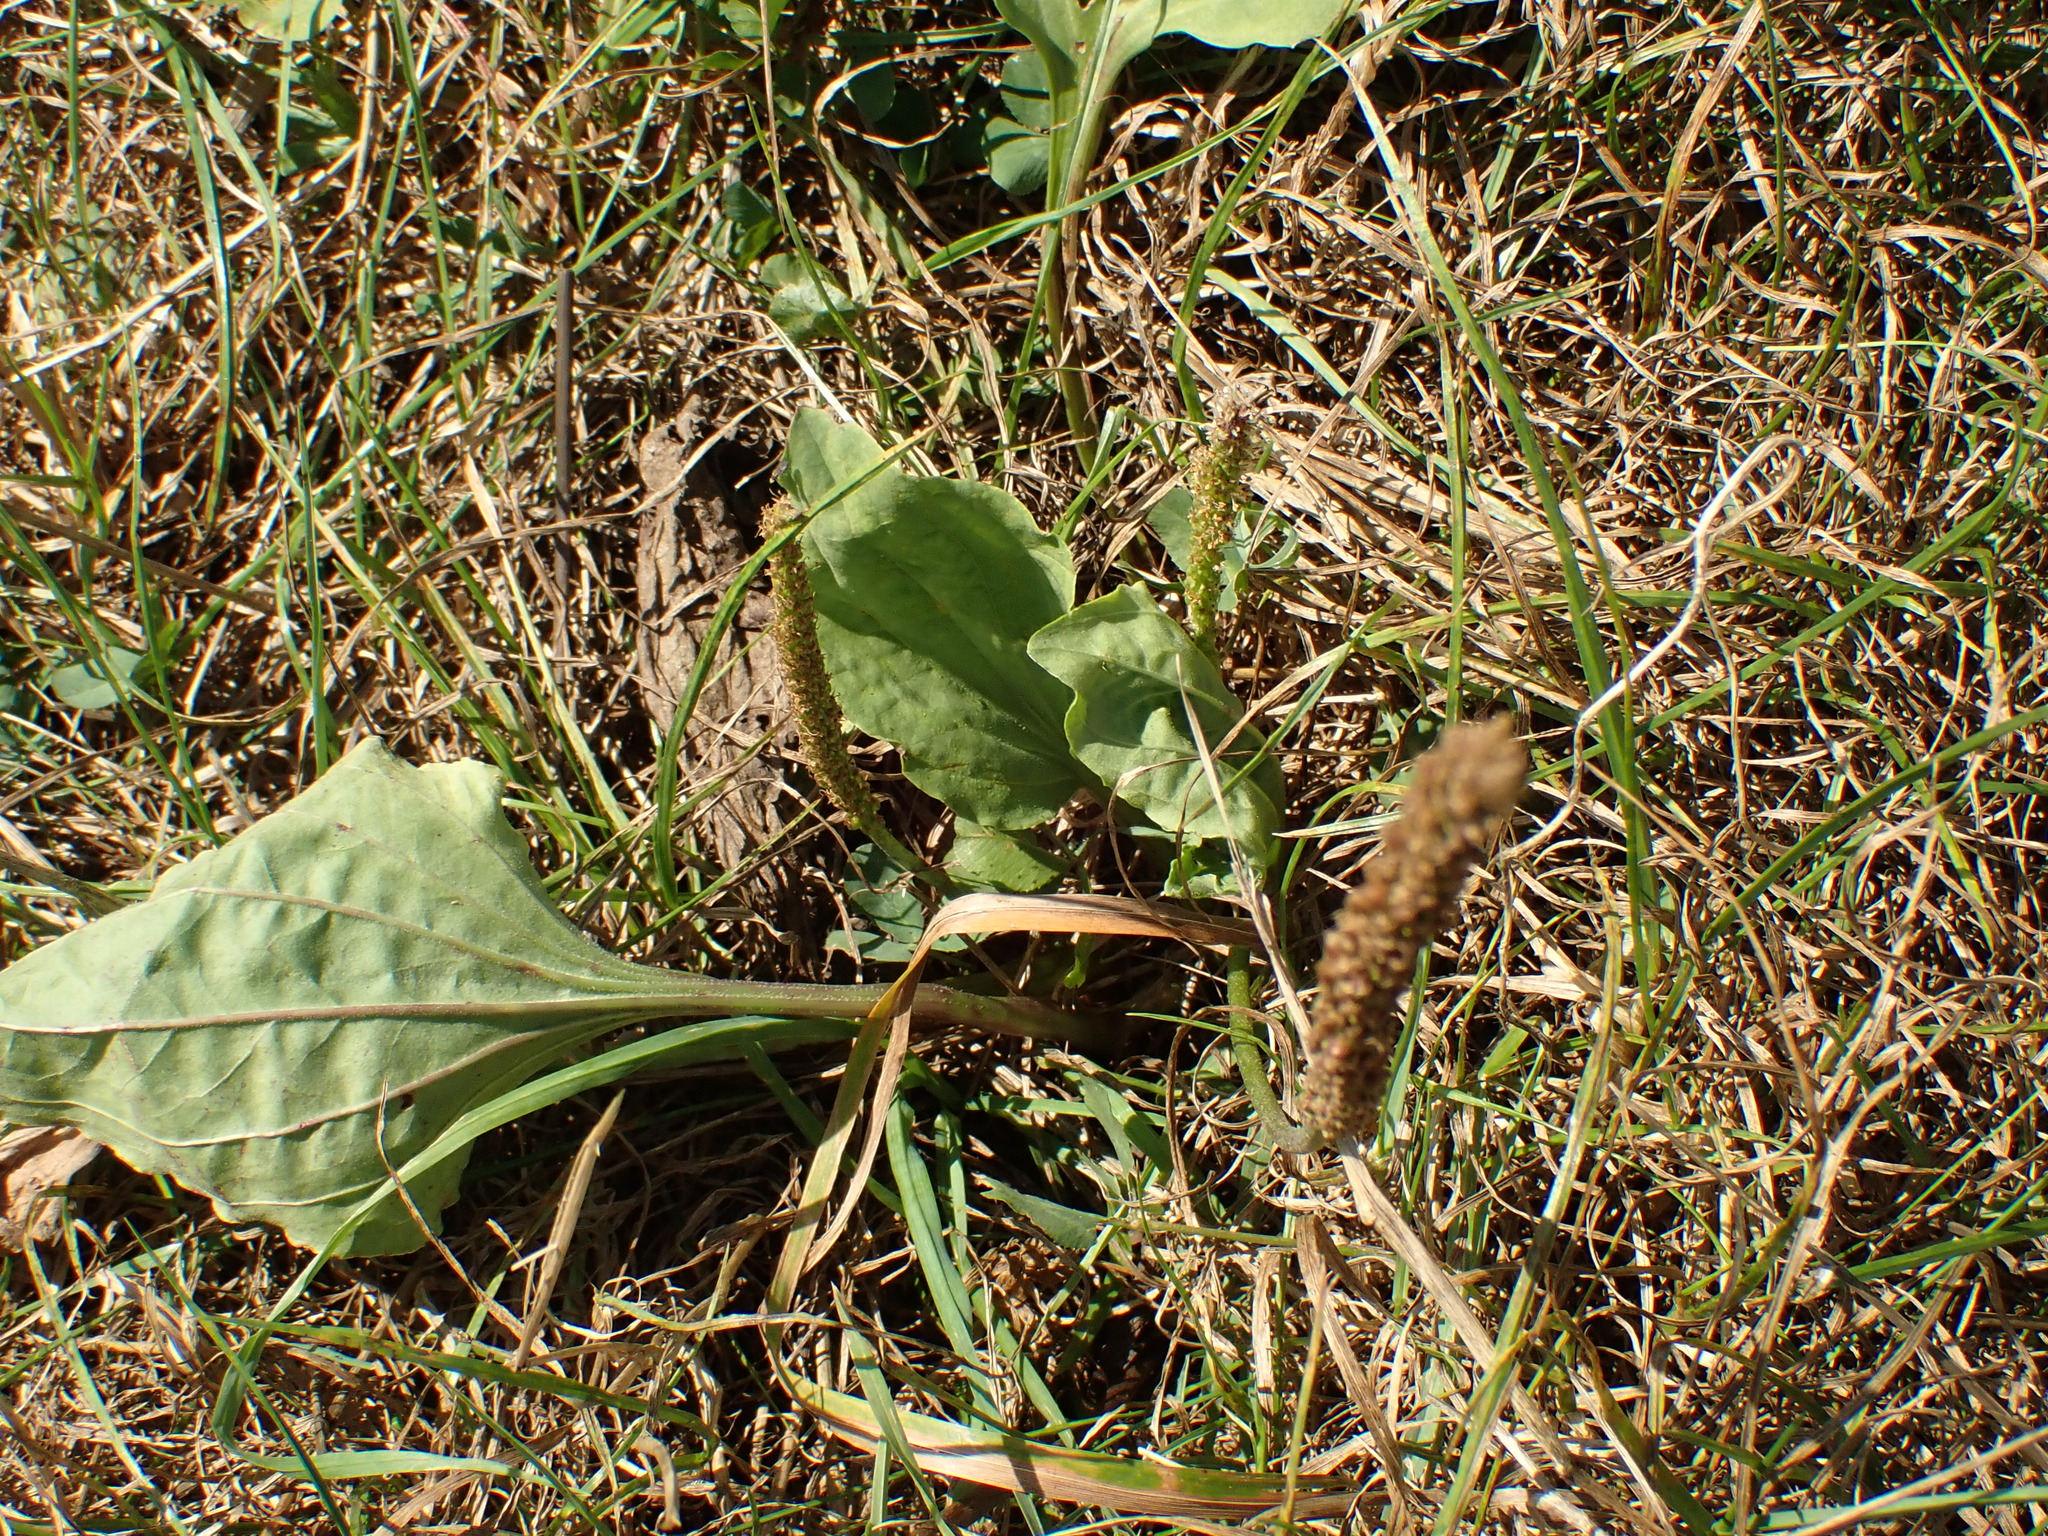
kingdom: Plantae
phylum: Tracheophyta
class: Magnoliopsida
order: Lamiales
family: Plantaginaceae
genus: Plantago
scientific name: Plantago major
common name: Common plantain
